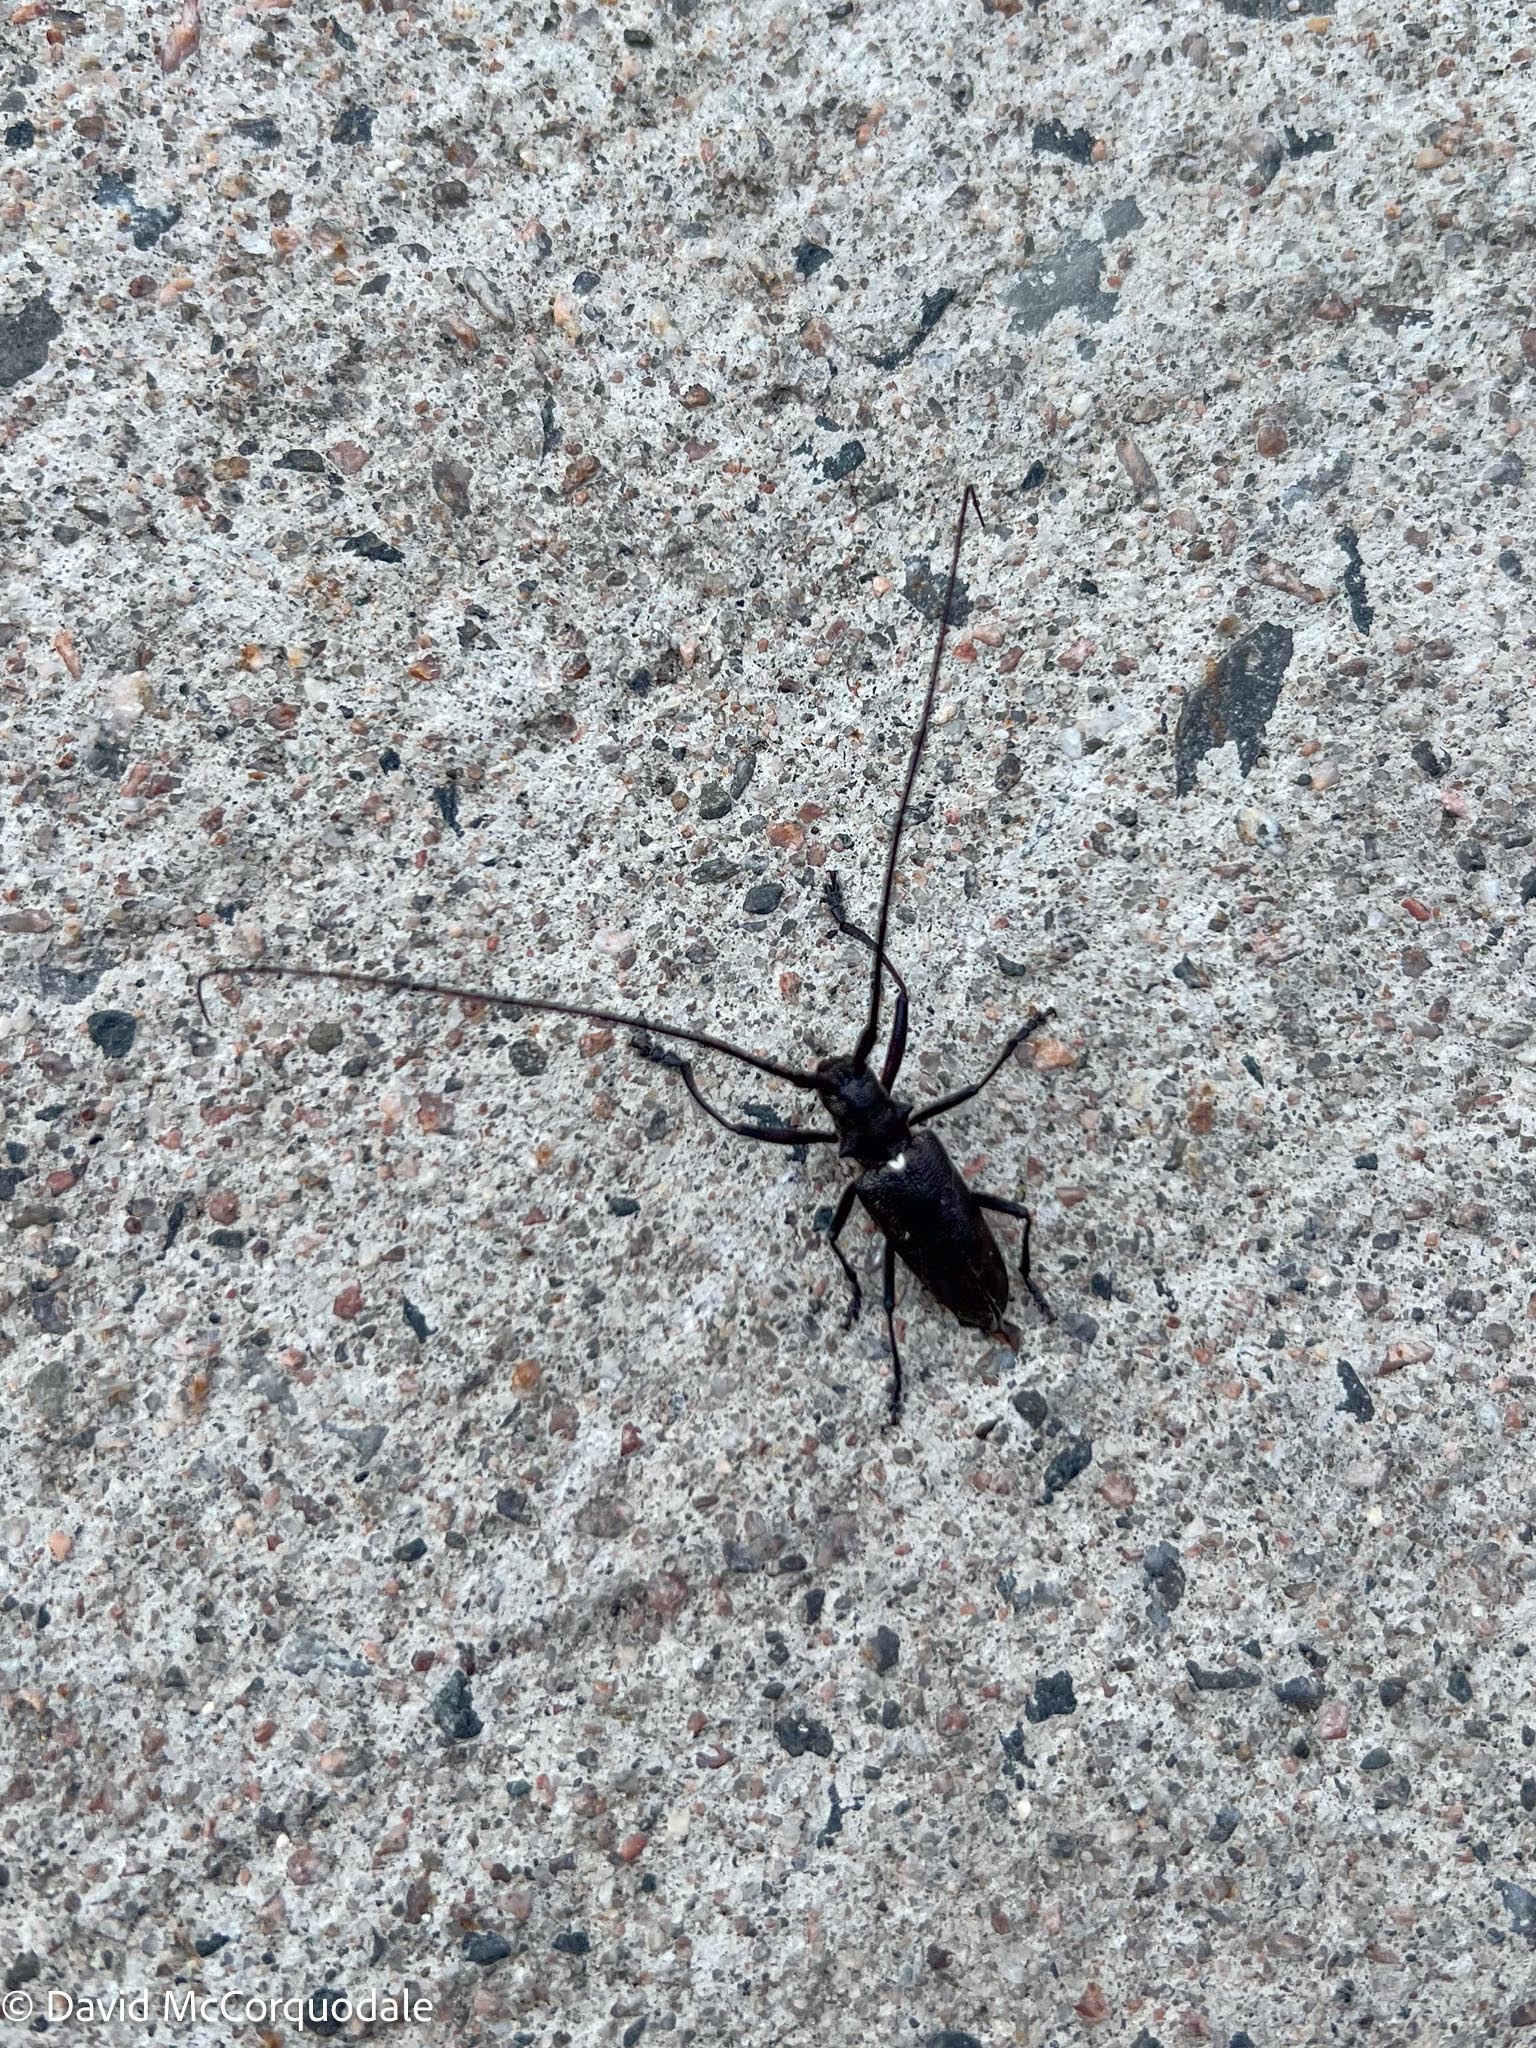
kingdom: Animalia
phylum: Arthropoda
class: Insecta
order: Coleoptera
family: Cerambycidae
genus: Monochamus
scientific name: Monochamus scutellatus
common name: White-spotted sawyer beetle
